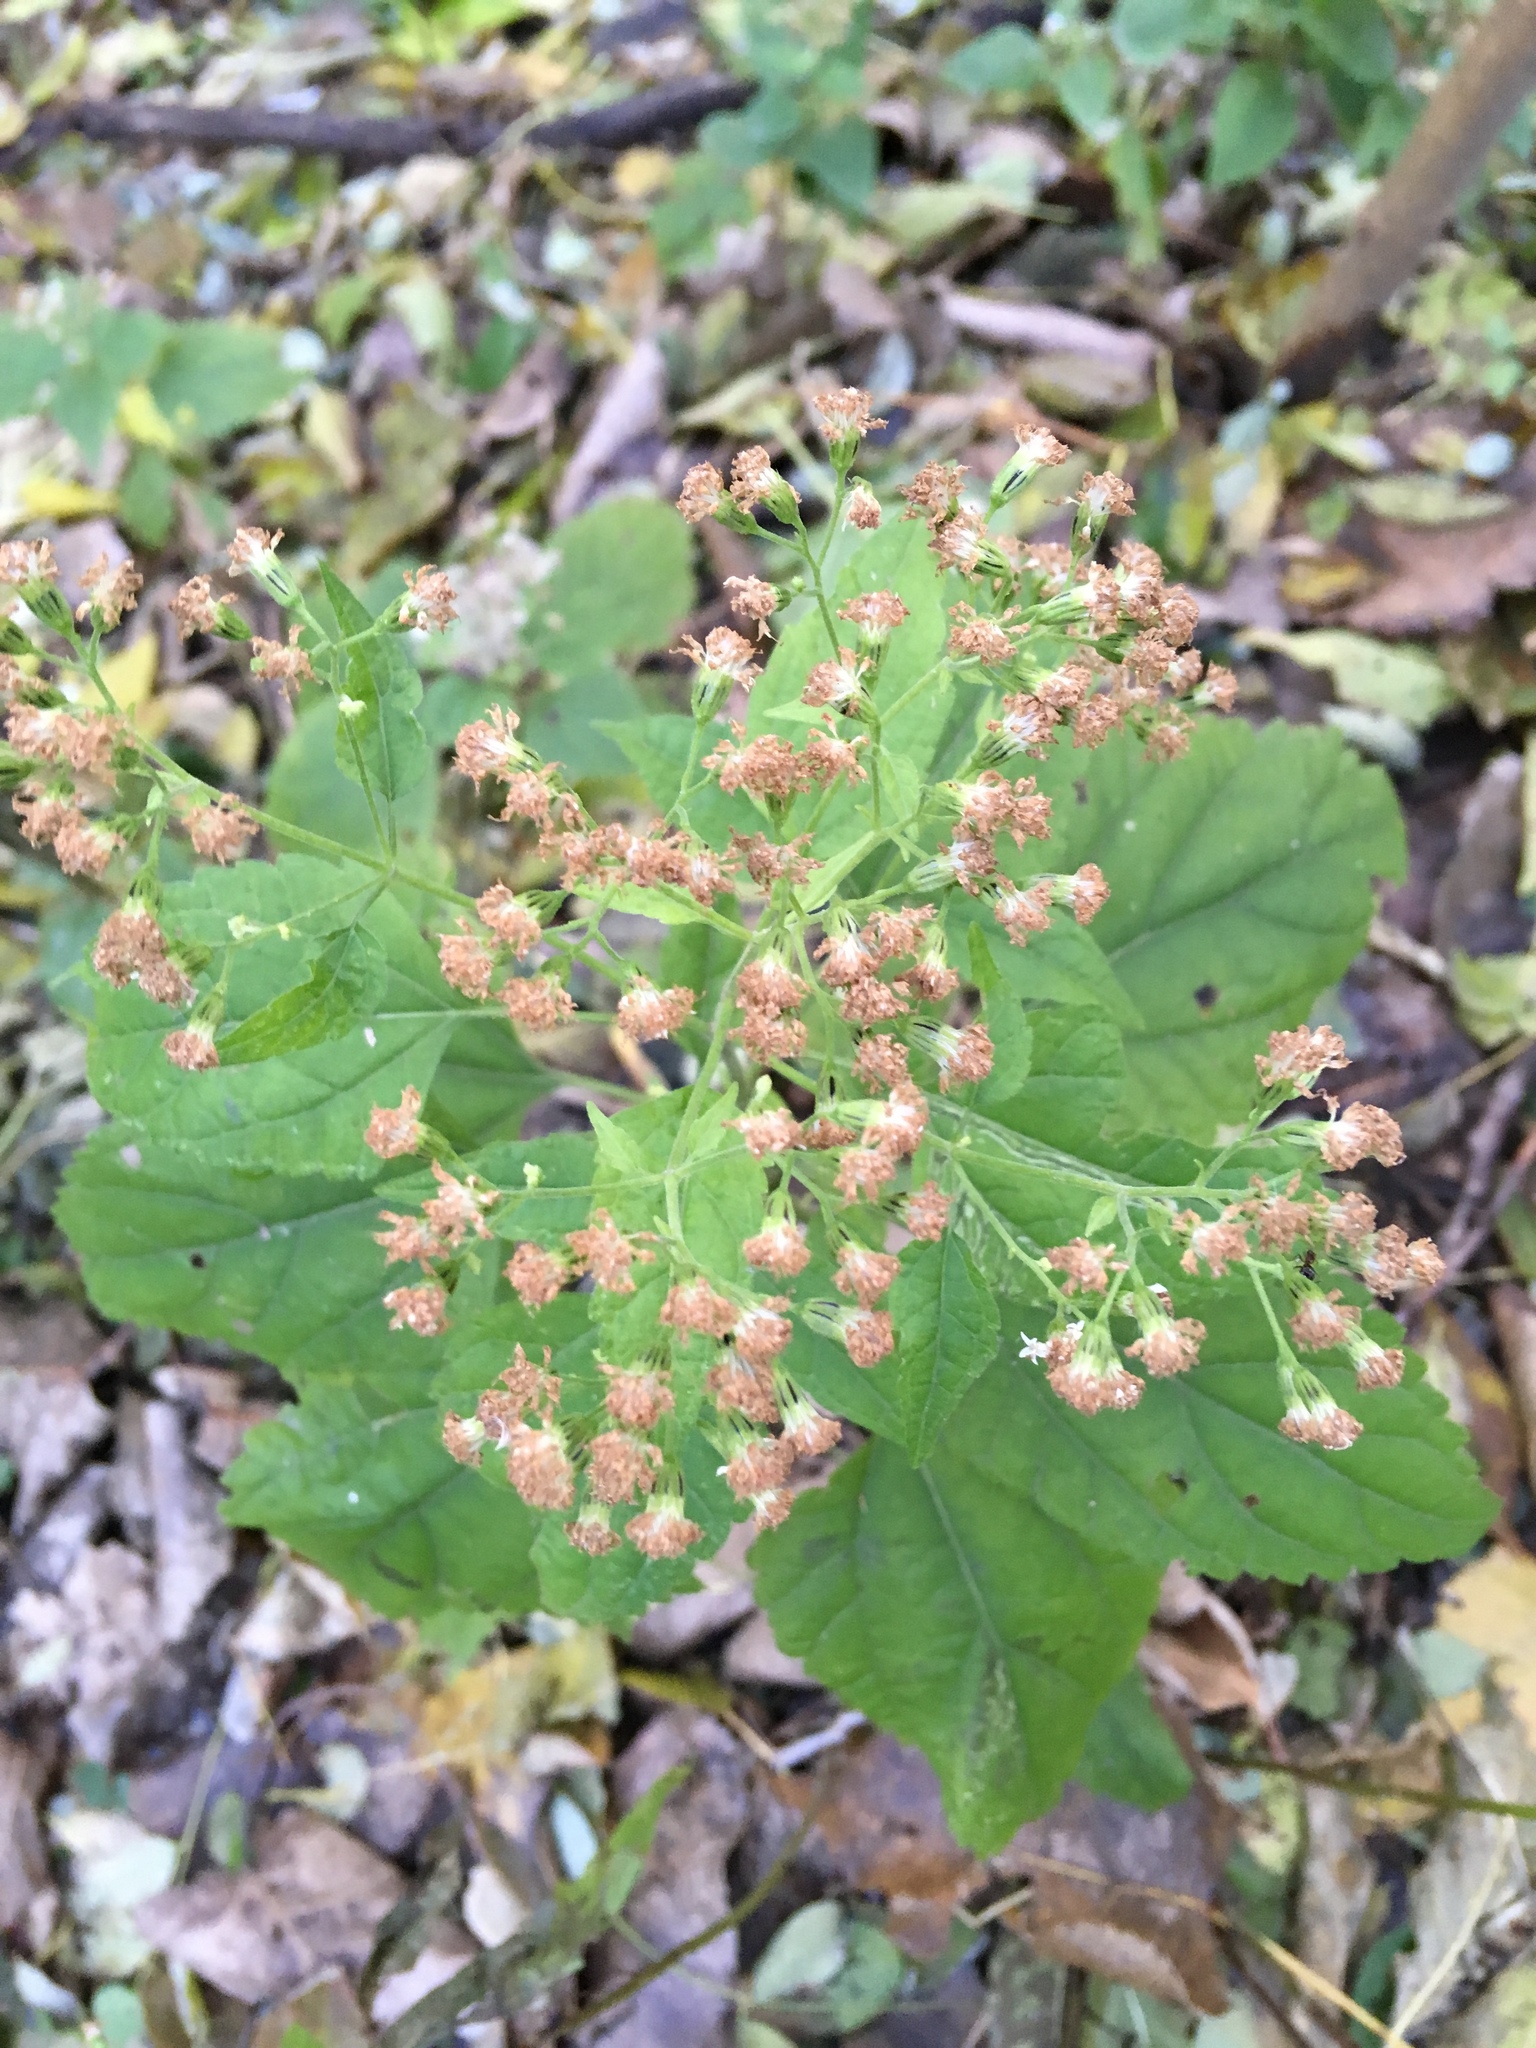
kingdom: Plantae
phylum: Tracheophyta
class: Magnoliopsida
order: Asterales
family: Asteraceae
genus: Ageratina
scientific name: Ageratina altissima
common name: White snakeroot
